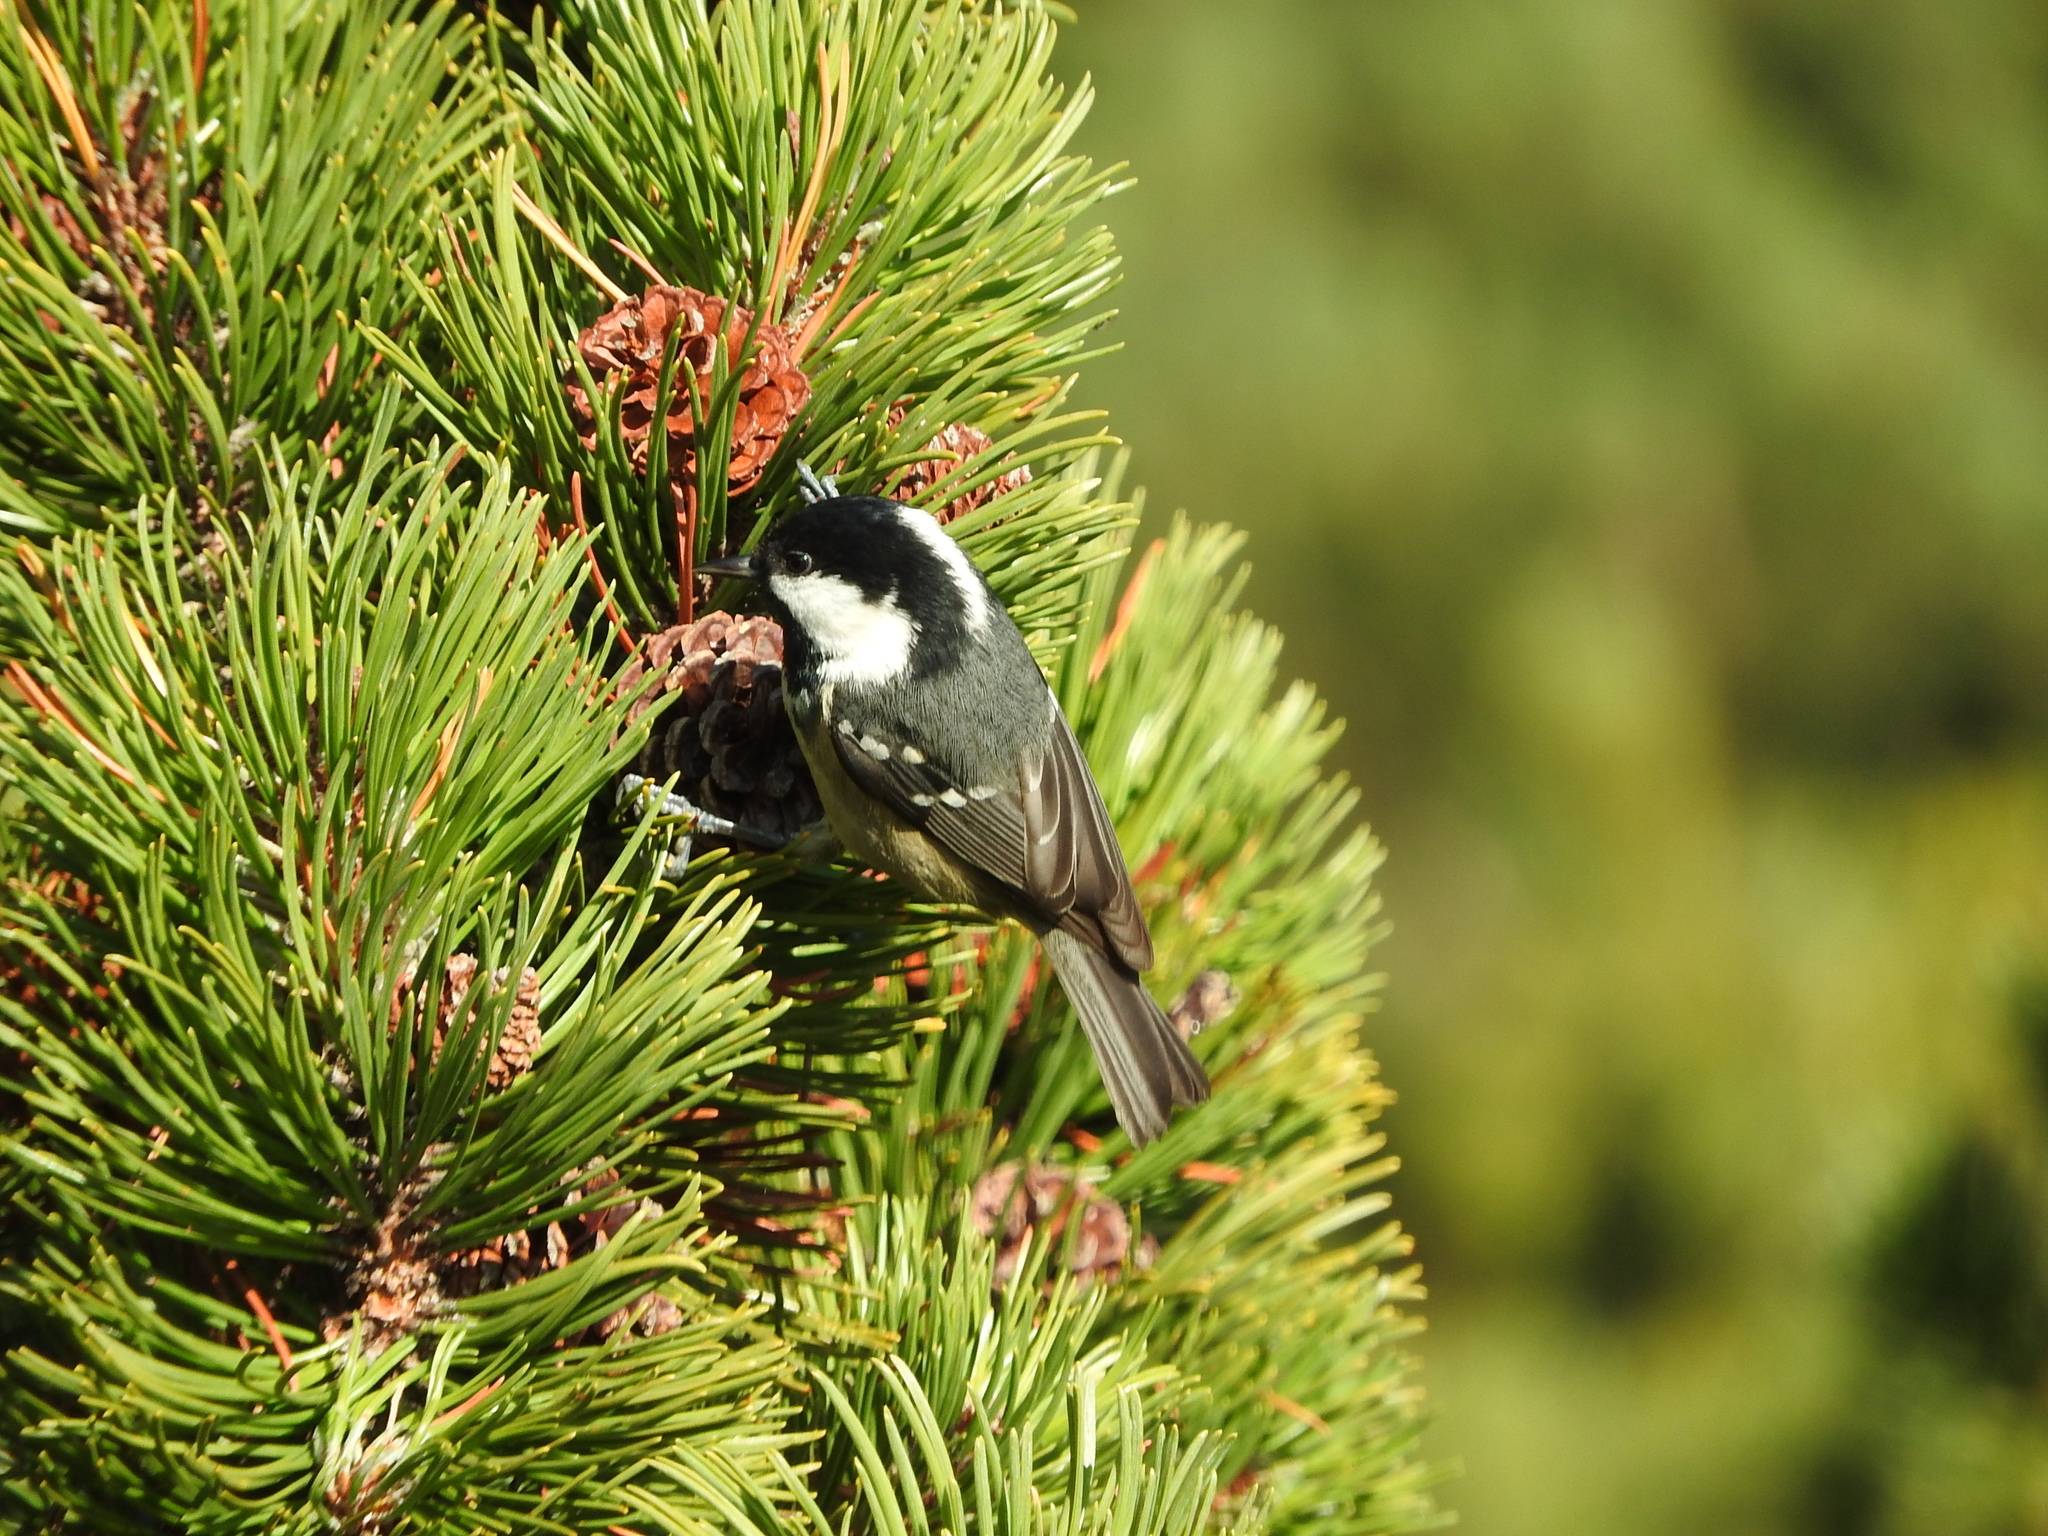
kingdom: Animalia
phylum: Chordata
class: Aves
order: Passeriformes
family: Paridae
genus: Periparus
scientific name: Periparus ater
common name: Coal tit
